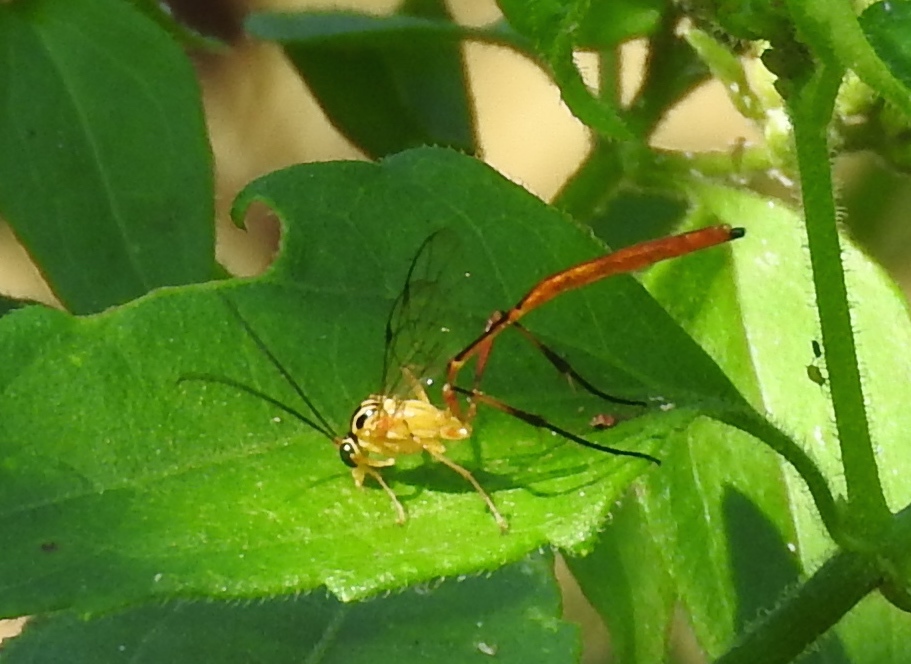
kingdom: Animalia
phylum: Arthropoda
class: Insecta
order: Hymenoptera
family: Ichneumonidae
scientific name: Ichneumonidae
